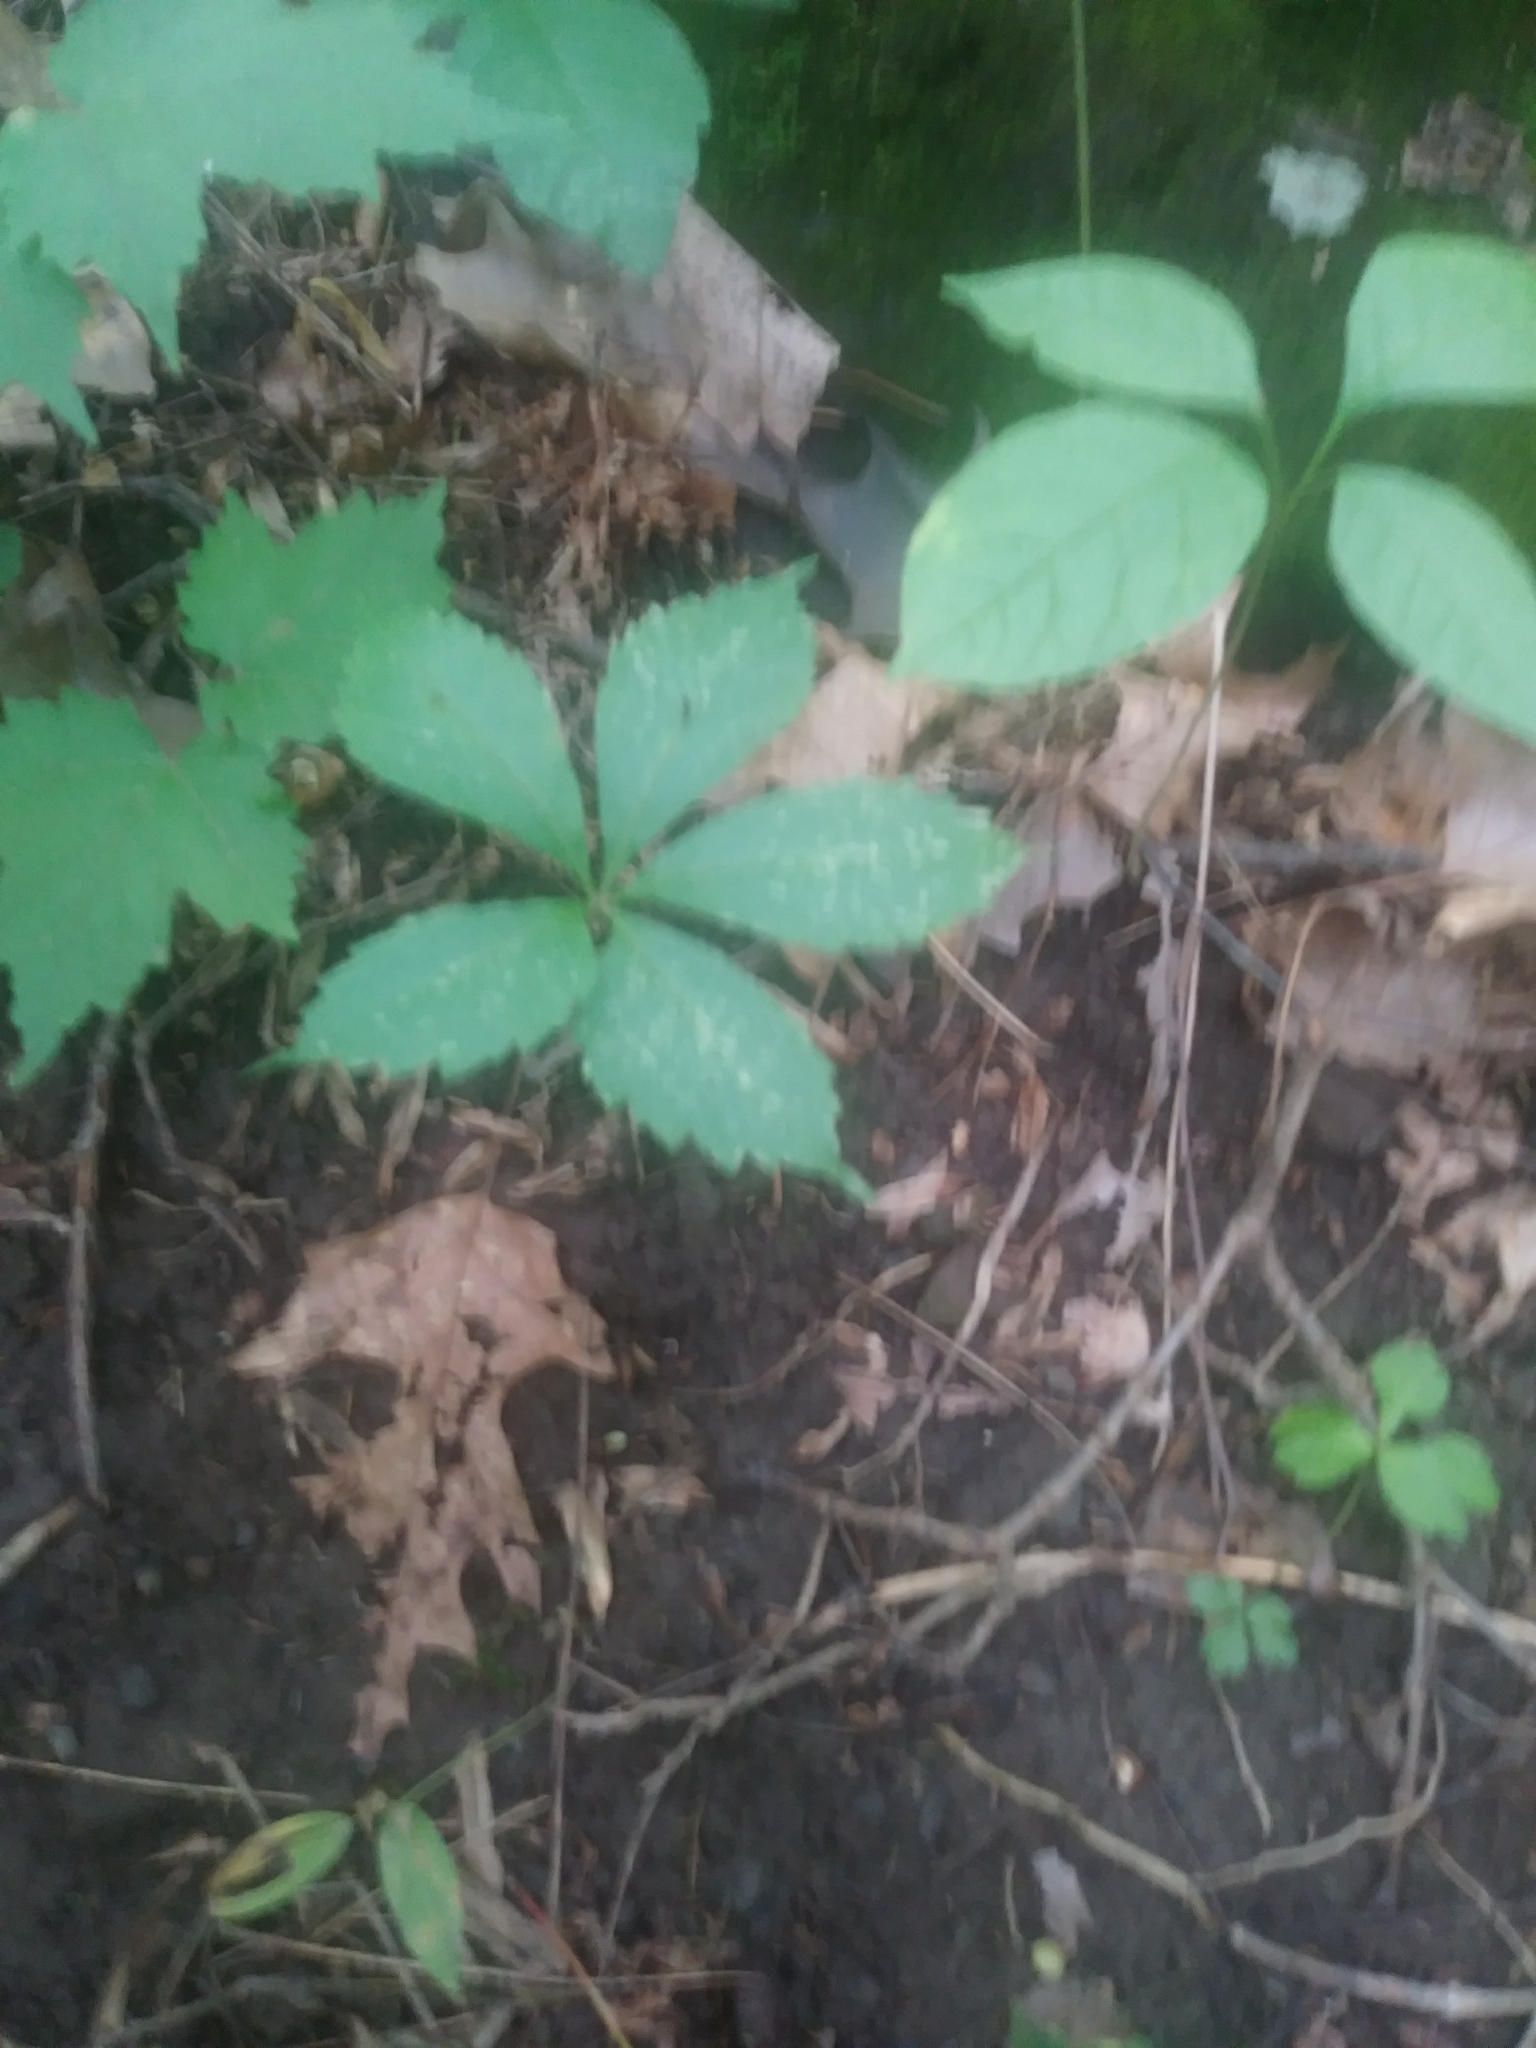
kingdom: Plantae
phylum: Tracheophyta
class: Magnoliopsida
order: Vitales
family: Vitaceae
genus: Parthenocissus
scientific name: Parthenocissus quinquefolia
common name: Virginia-creeper
